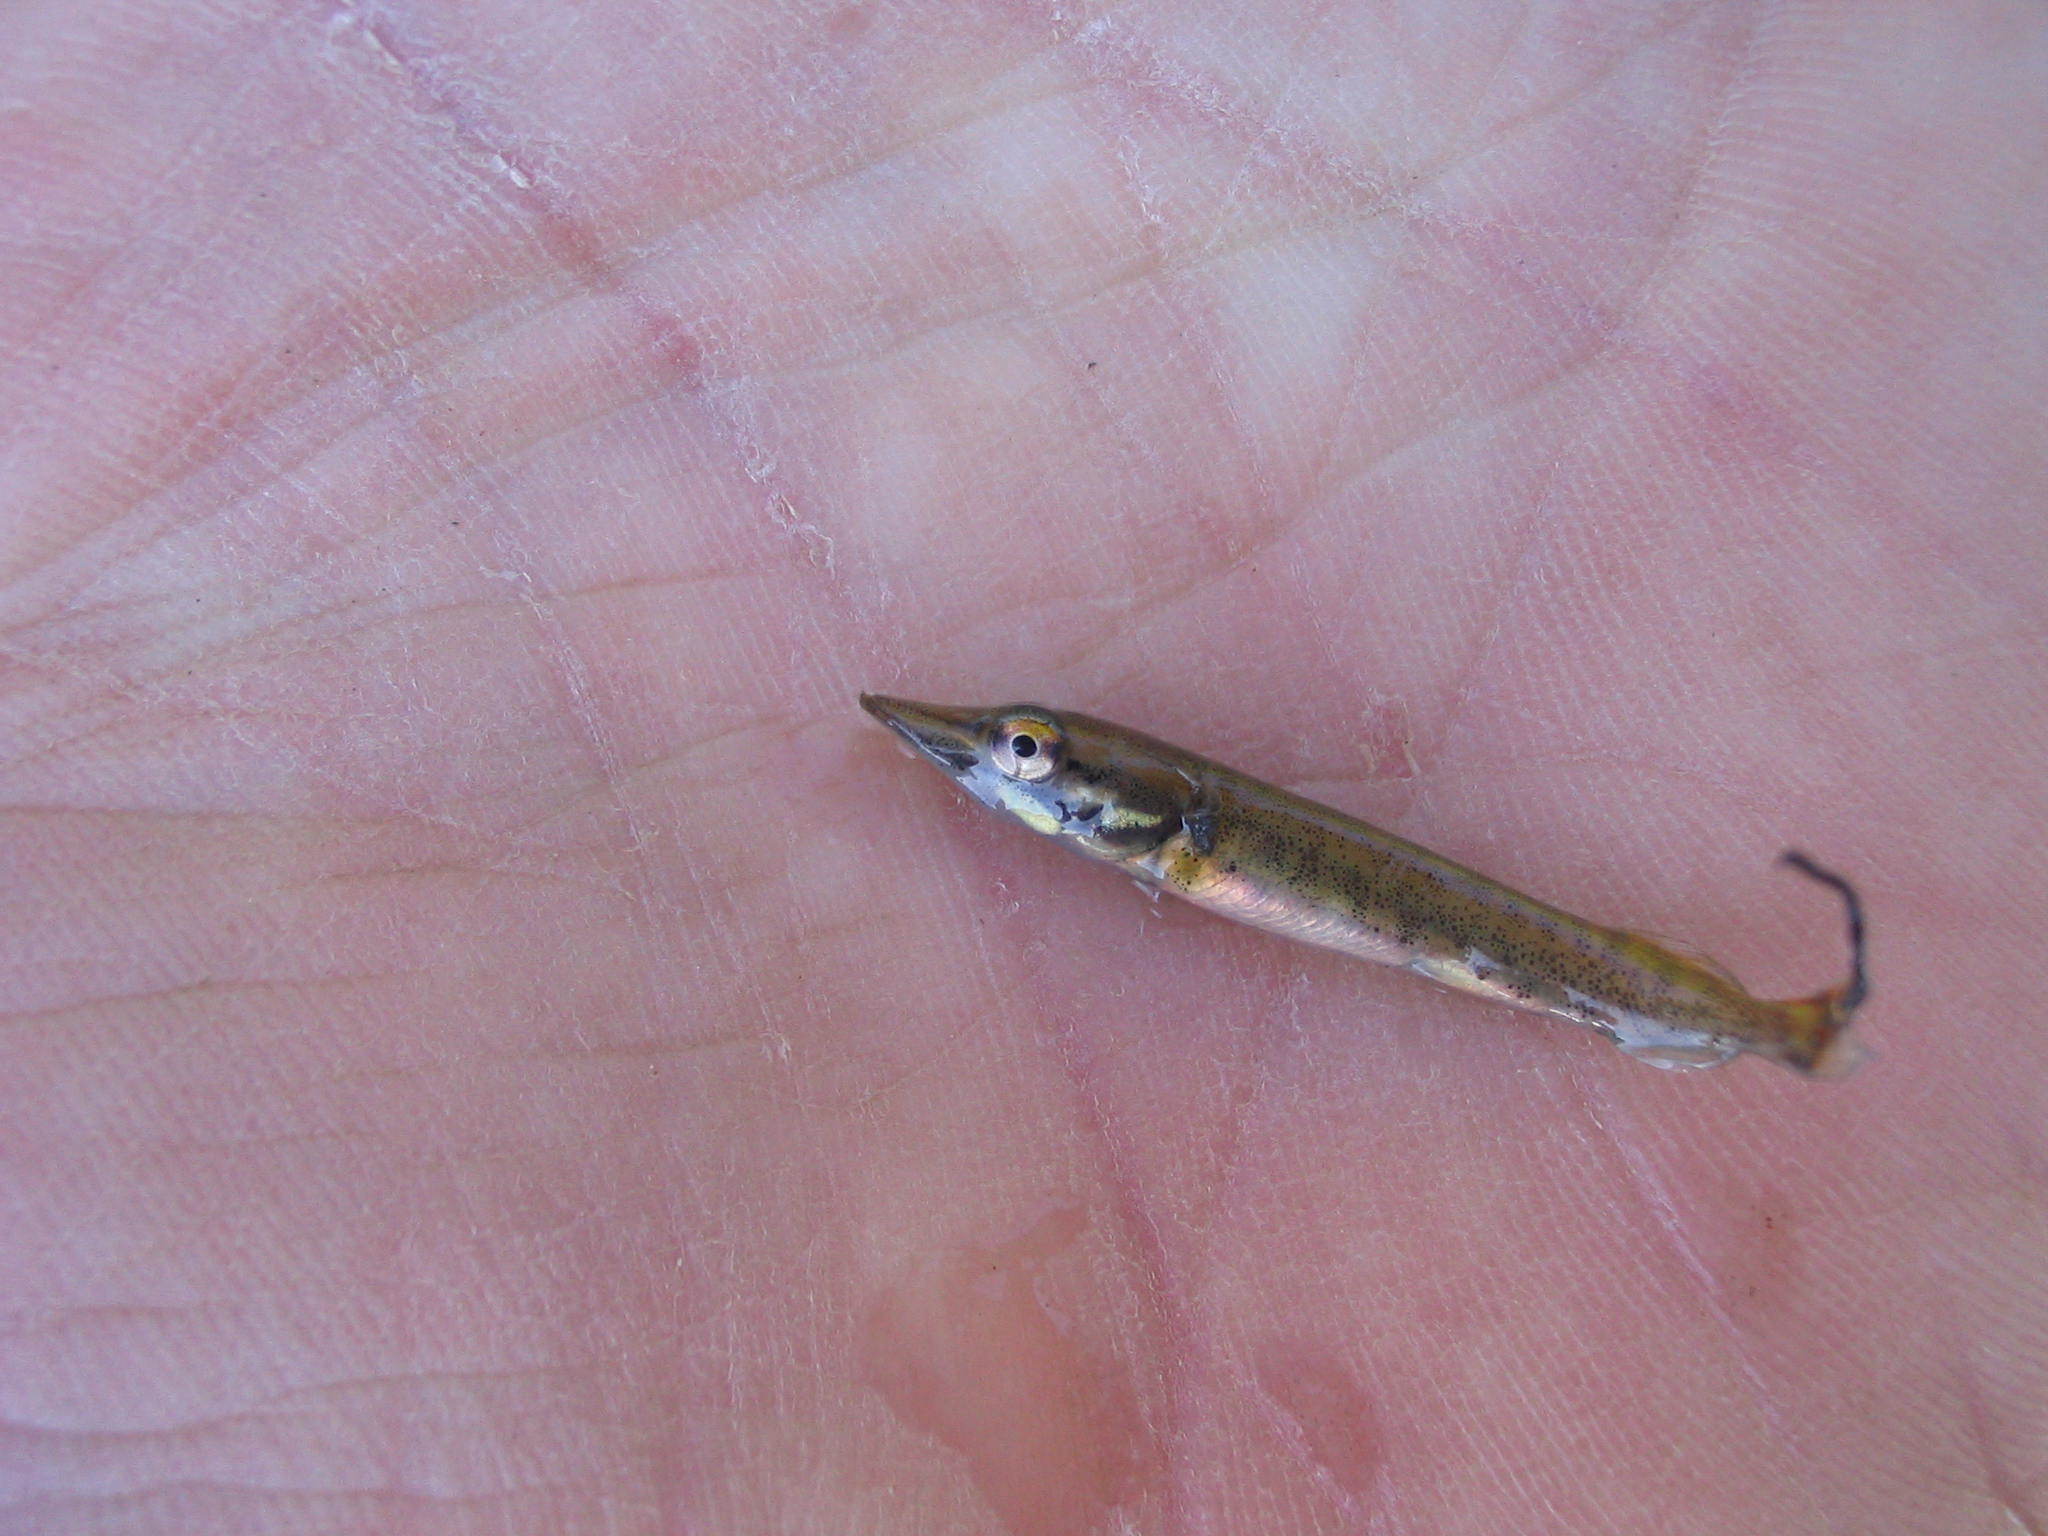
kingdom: Animalia
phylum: Chordata
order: Esociformes
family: Esocidae
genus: Esox
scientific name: Esox lucius
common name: Northern pike
